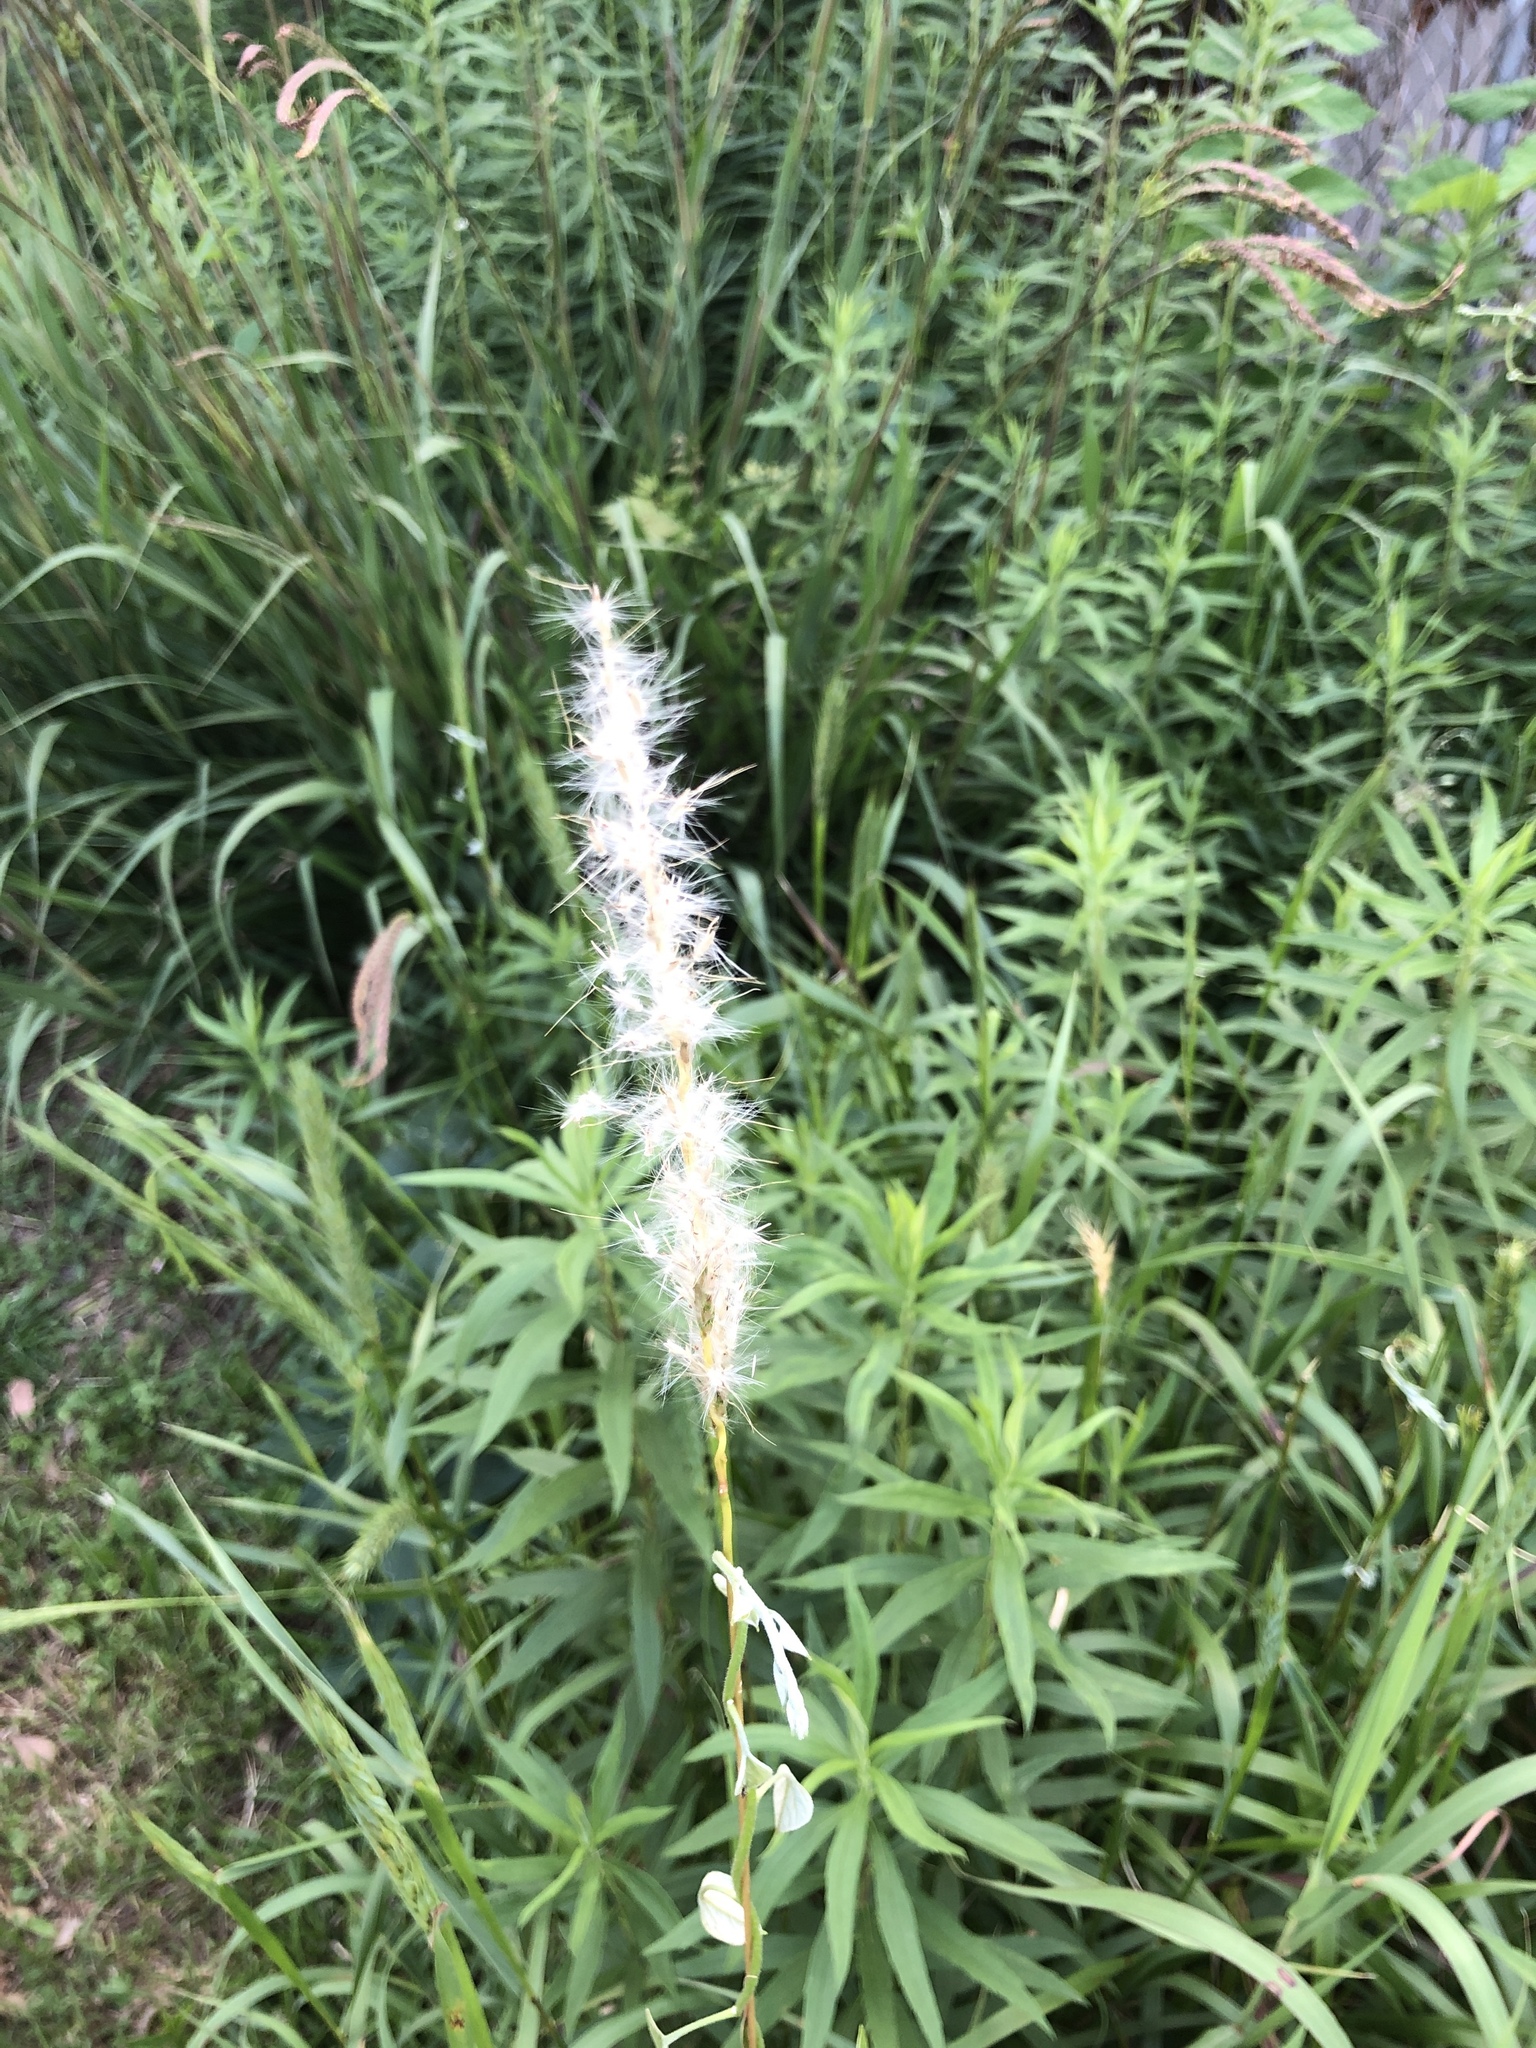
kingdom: Plantae
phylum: Tracheophyta
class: Liliopsida
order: Poales
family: Poaceae
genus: Bothriochloa
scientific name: Bothriochloa torreyana
